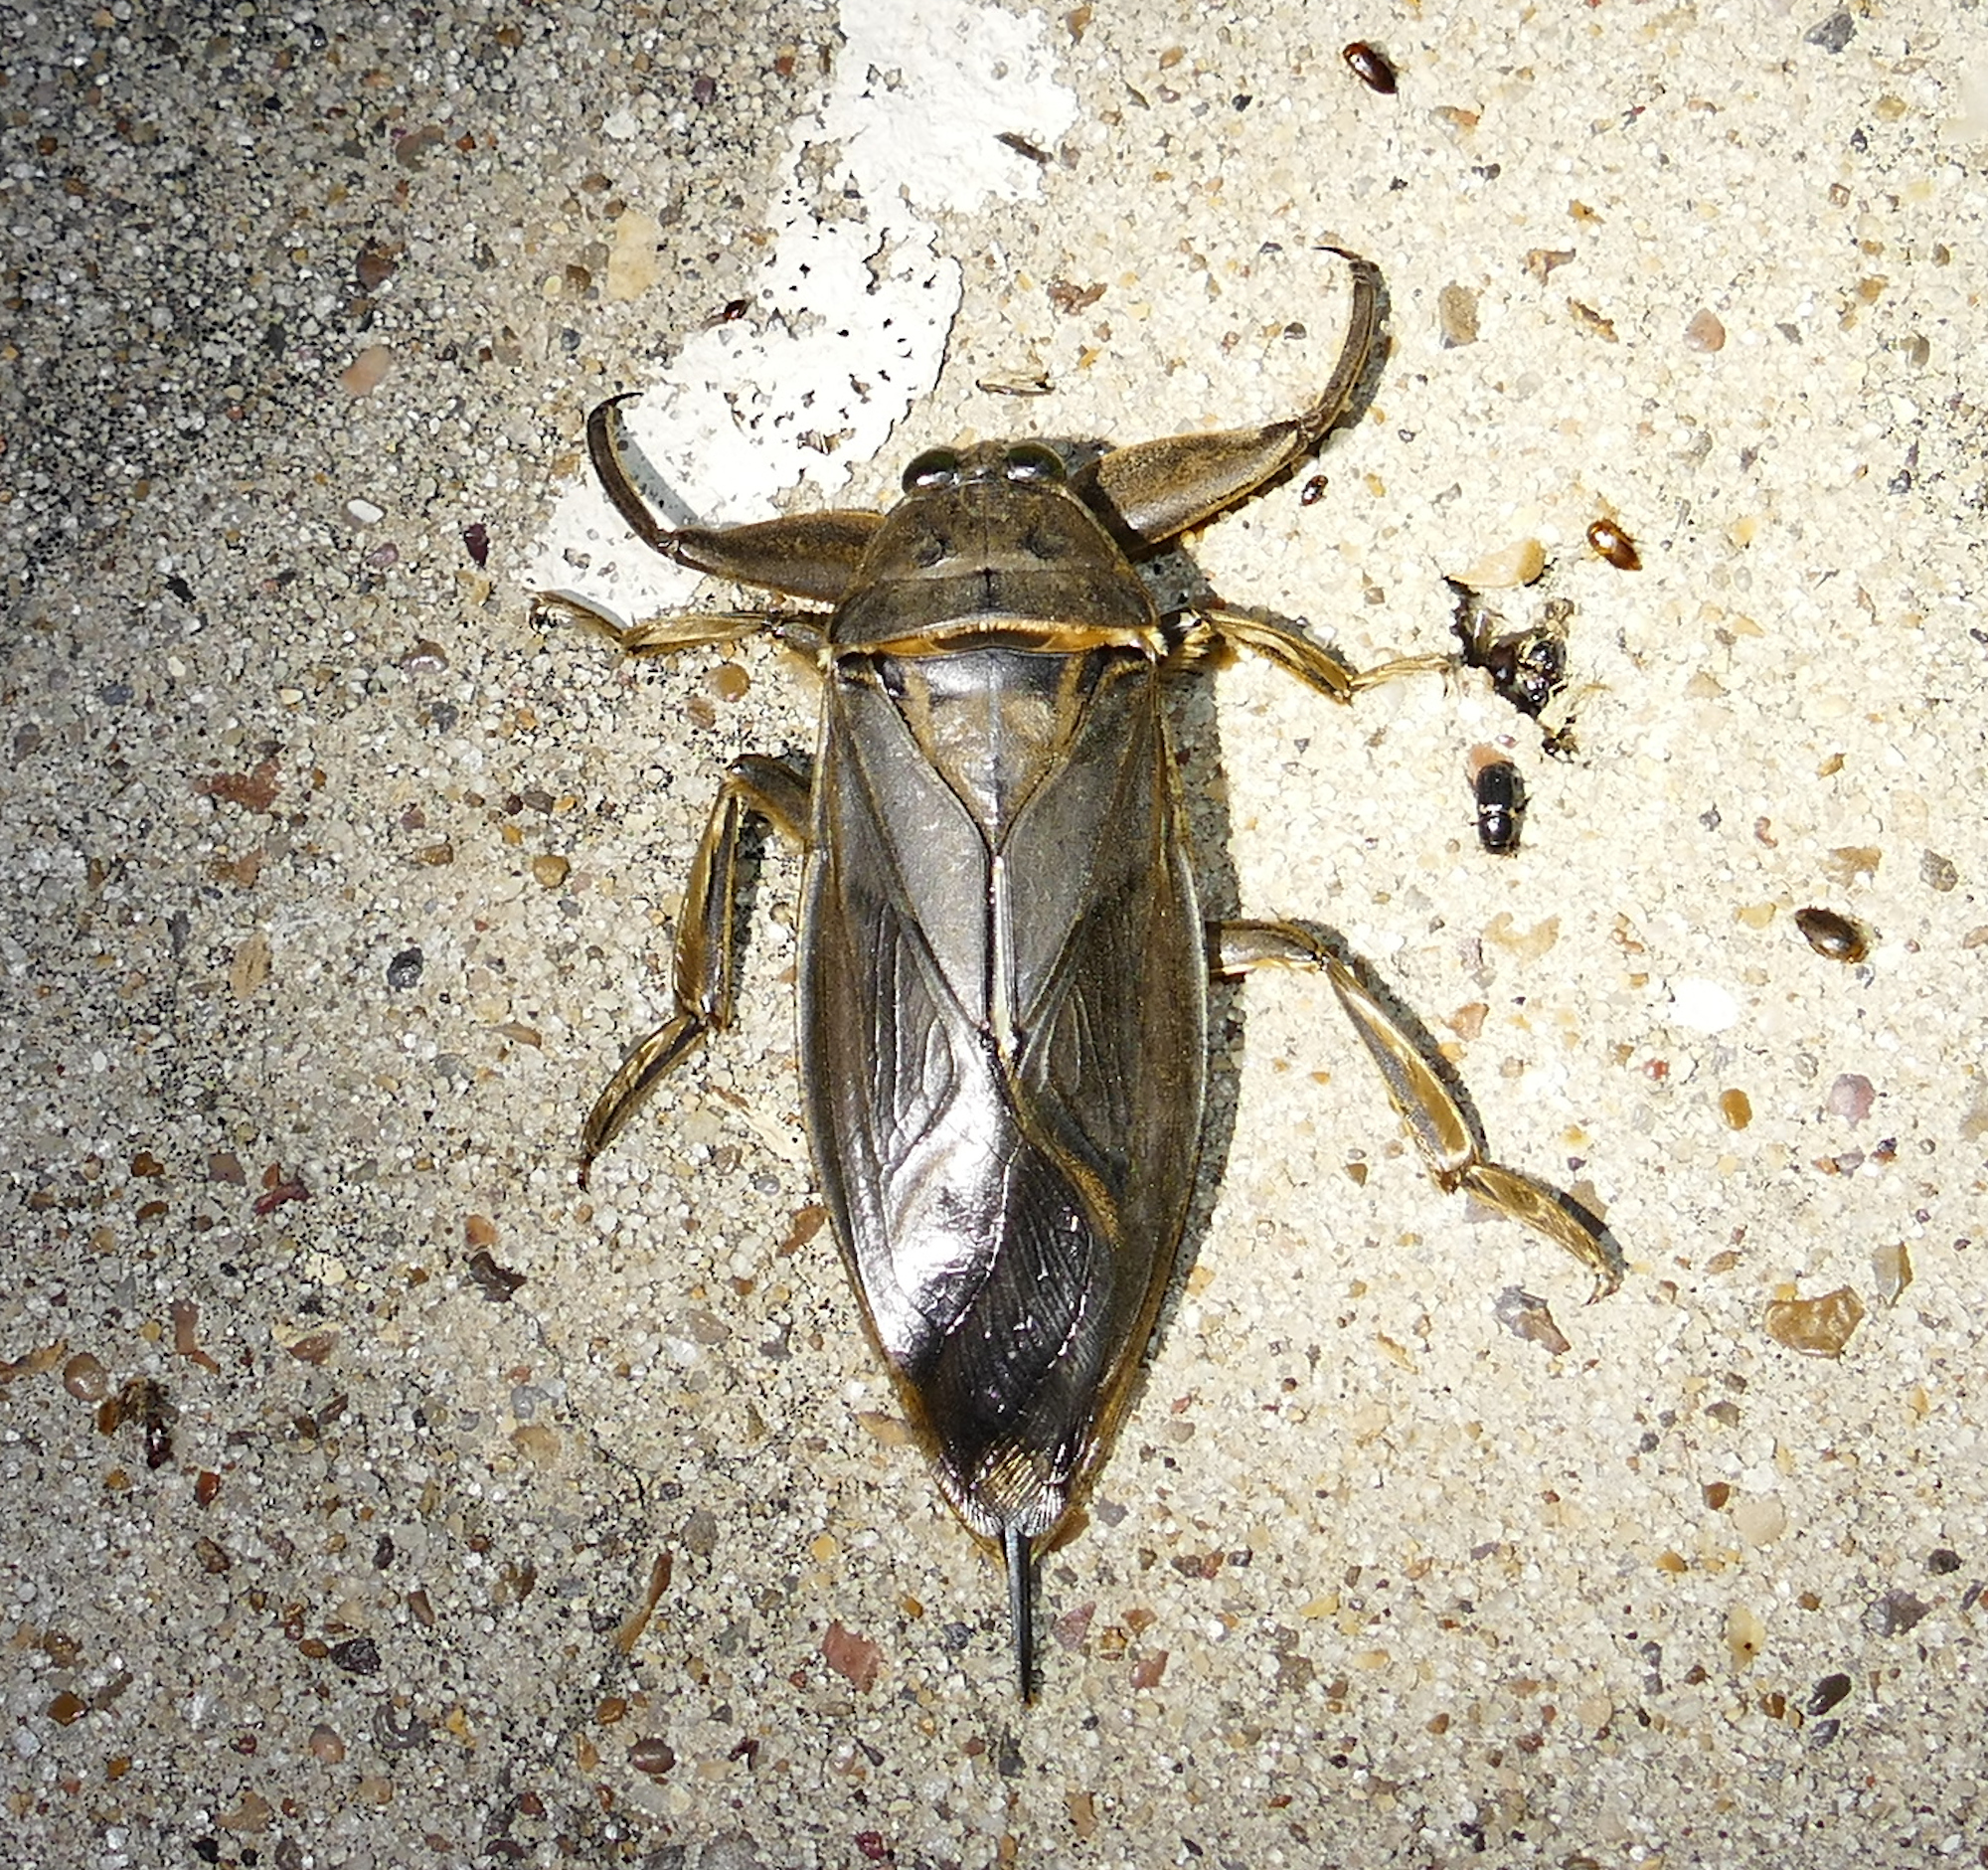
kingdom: Animalia
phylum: Arthropoda
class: Insecta
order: Hemiptera
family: Belostomatidae
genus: Lethocerus
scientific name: Lethocerus uhleri
